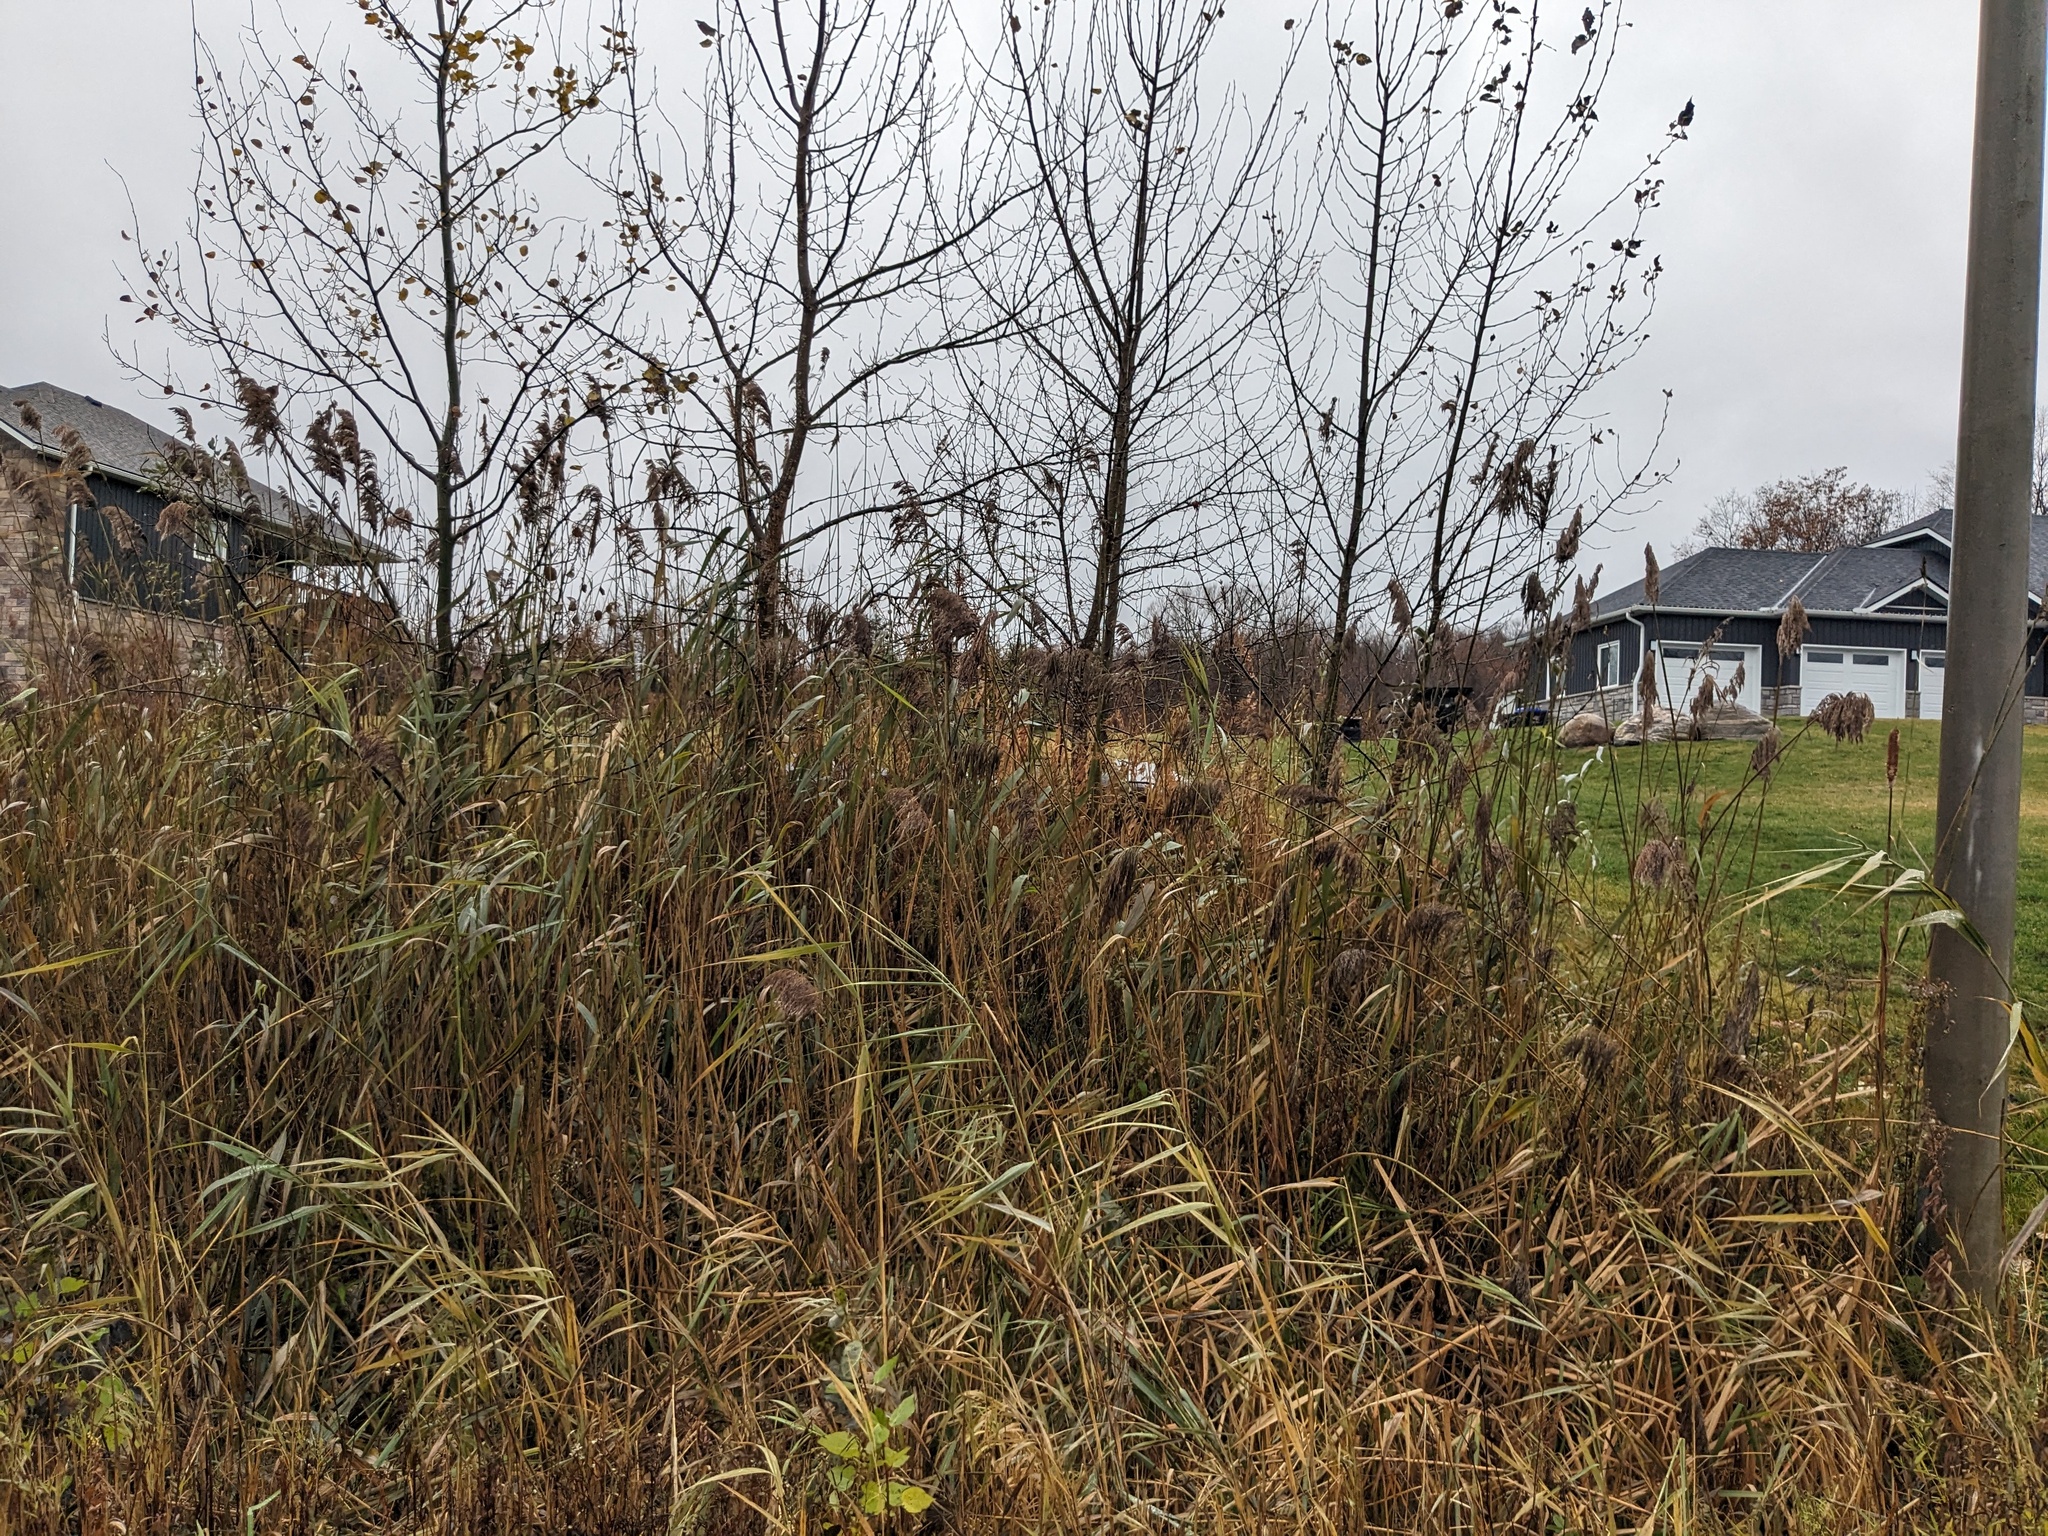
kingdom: Plantae
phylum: Tracheophyta
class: Liliopsida
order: Poales
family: Poaceae
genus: Phragmites
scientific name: Phragmites australis
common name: Common reed
